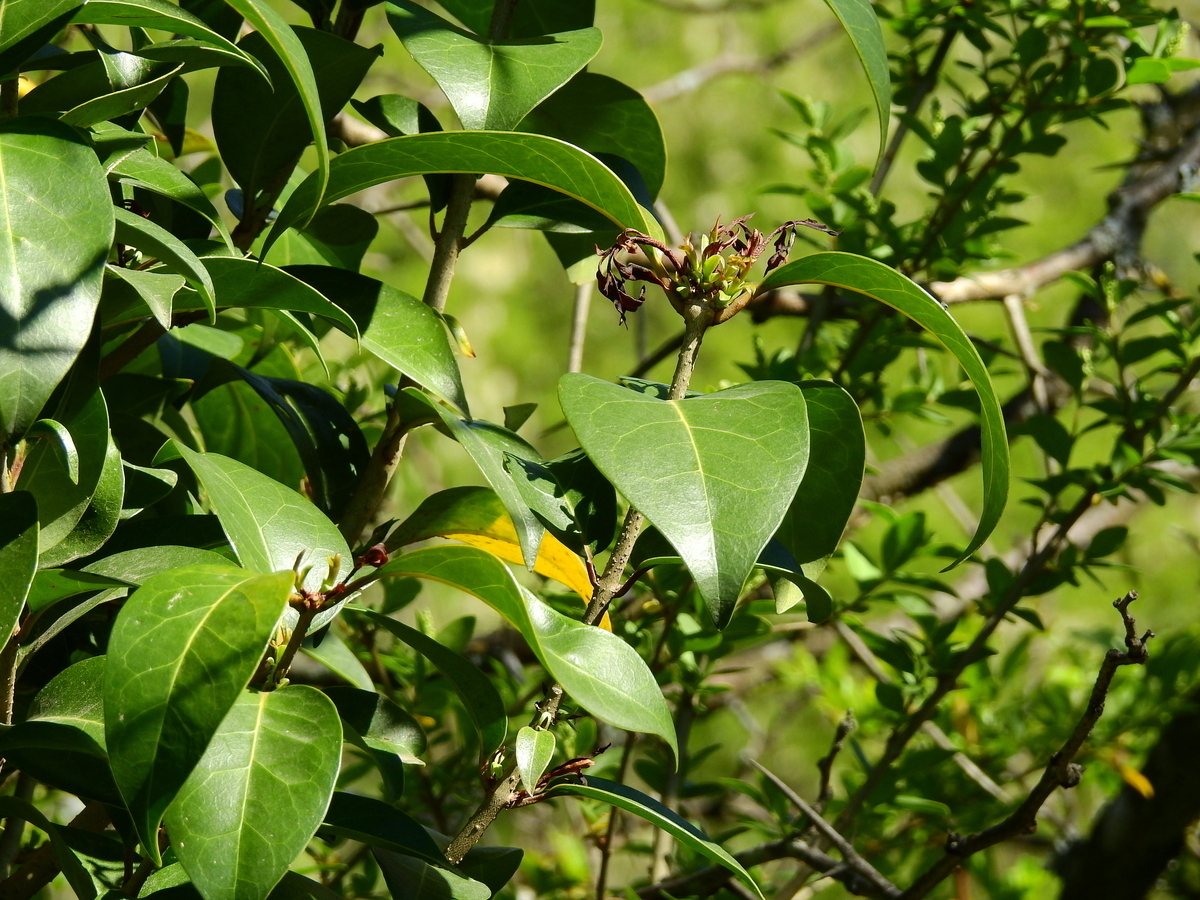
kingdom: Plantae
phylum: Tracheophyta
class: Magnoliopsida
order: Lamiales
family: Oleaceae
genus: Ligustrum
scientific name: Ligustrum lucidum
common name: Glossy privet
